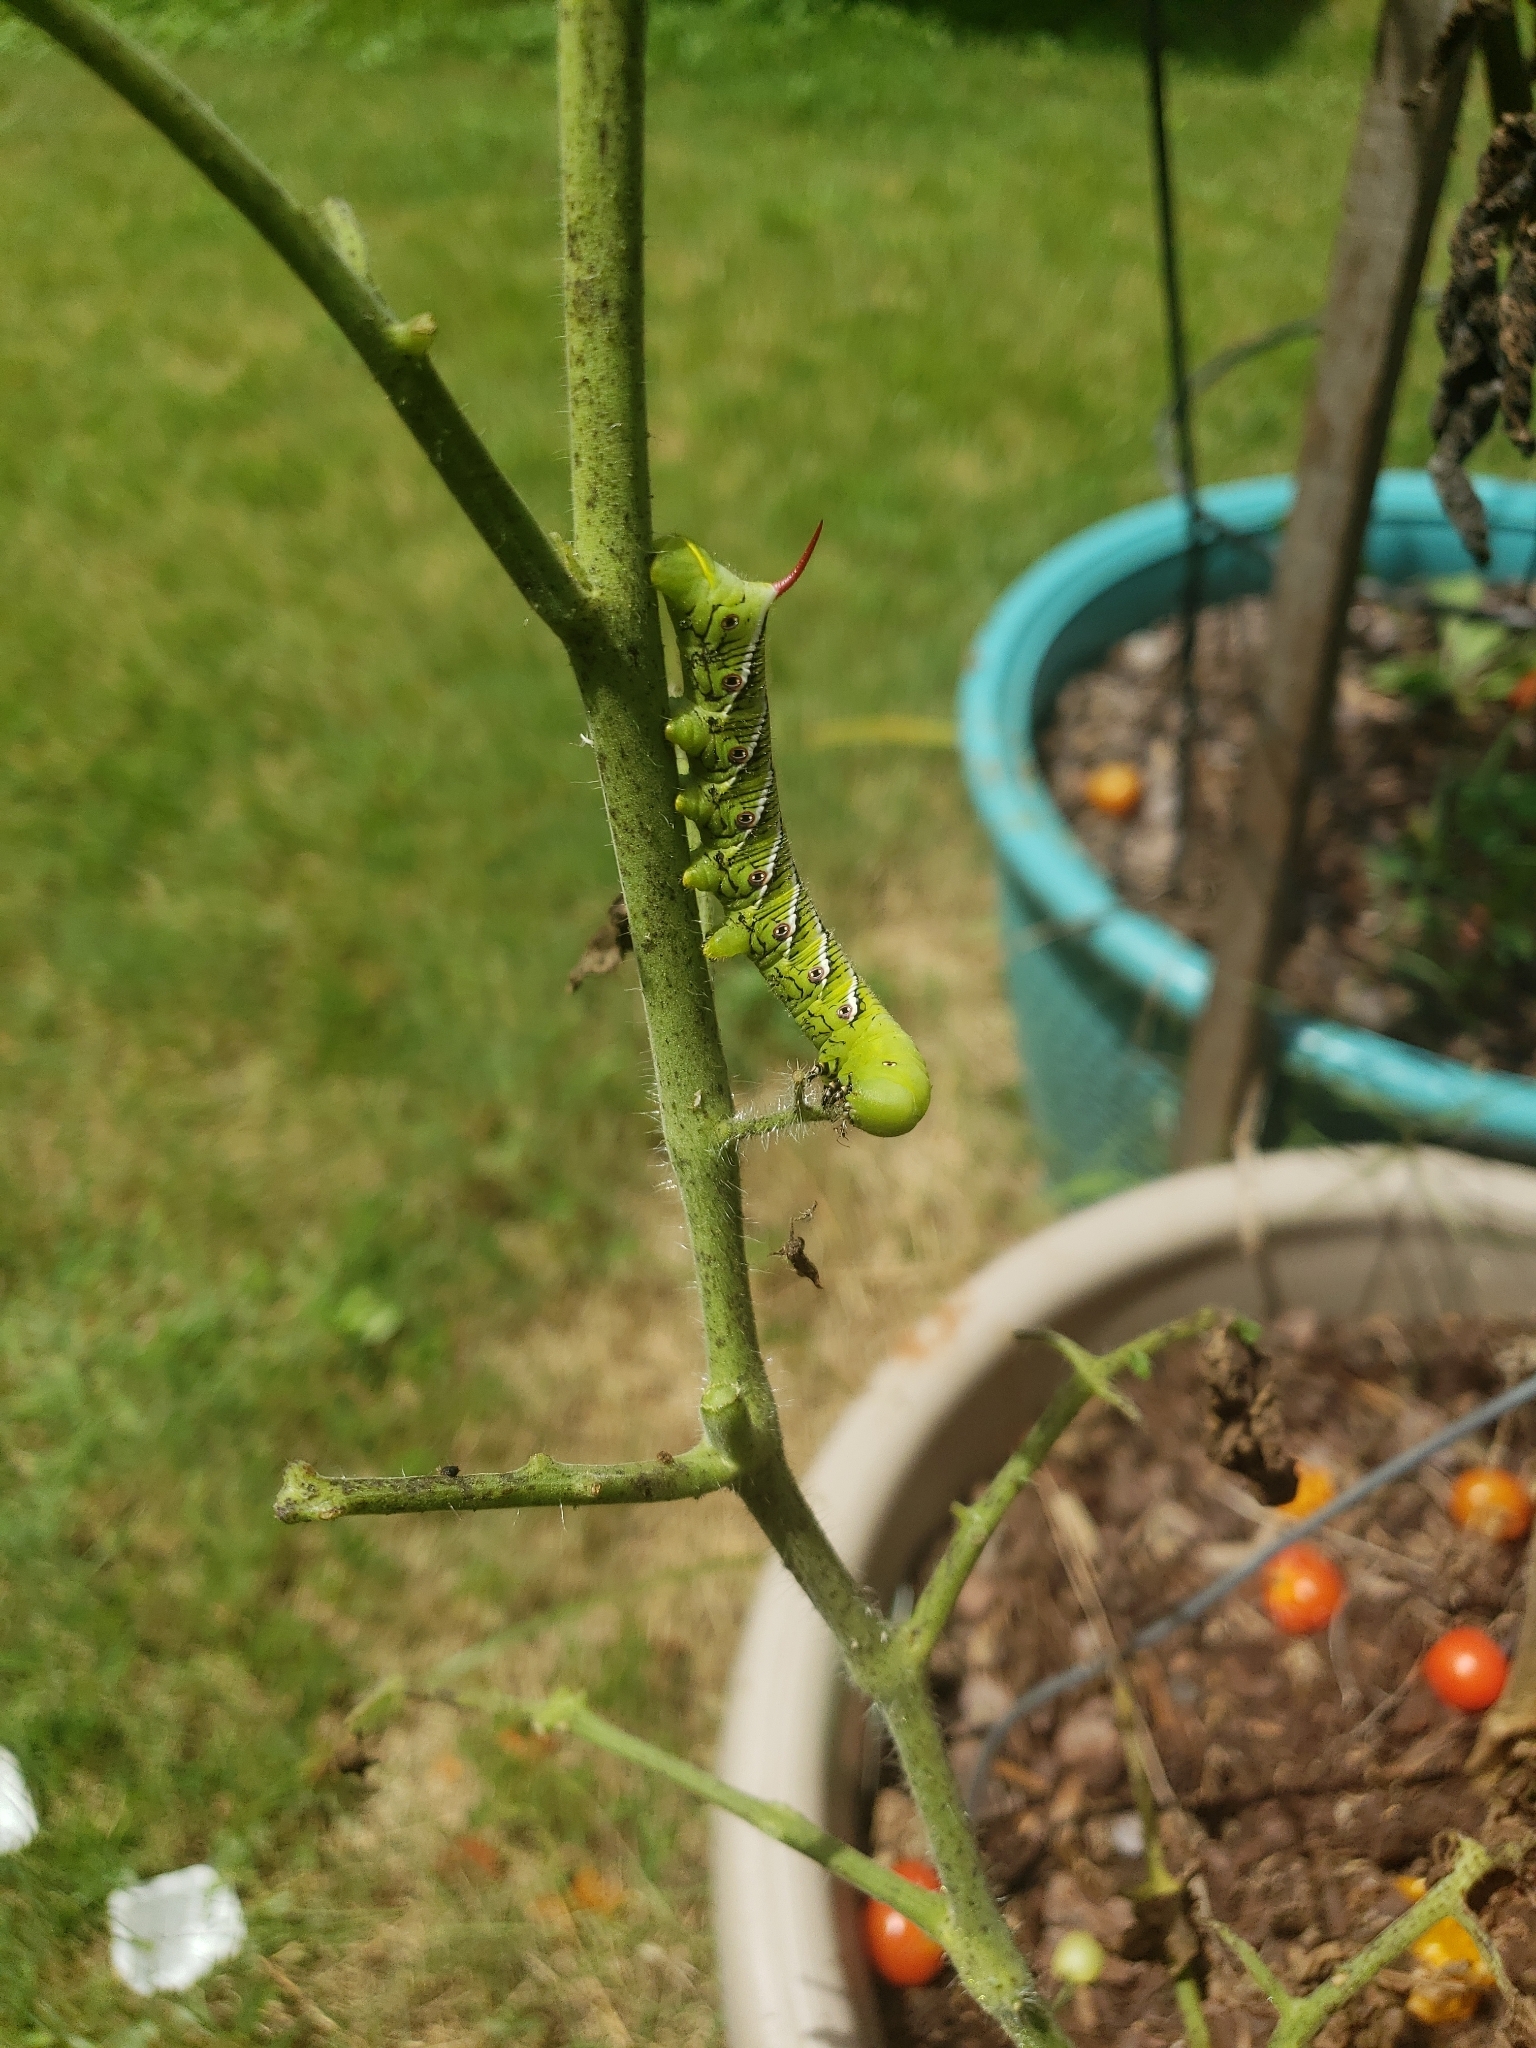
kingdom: Animalia
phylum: Arthropoda
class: Insecta
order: Lepidoptera
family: Sphingidae
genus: Manduca
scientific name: Manduca sexta
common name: Carolina sphinx
